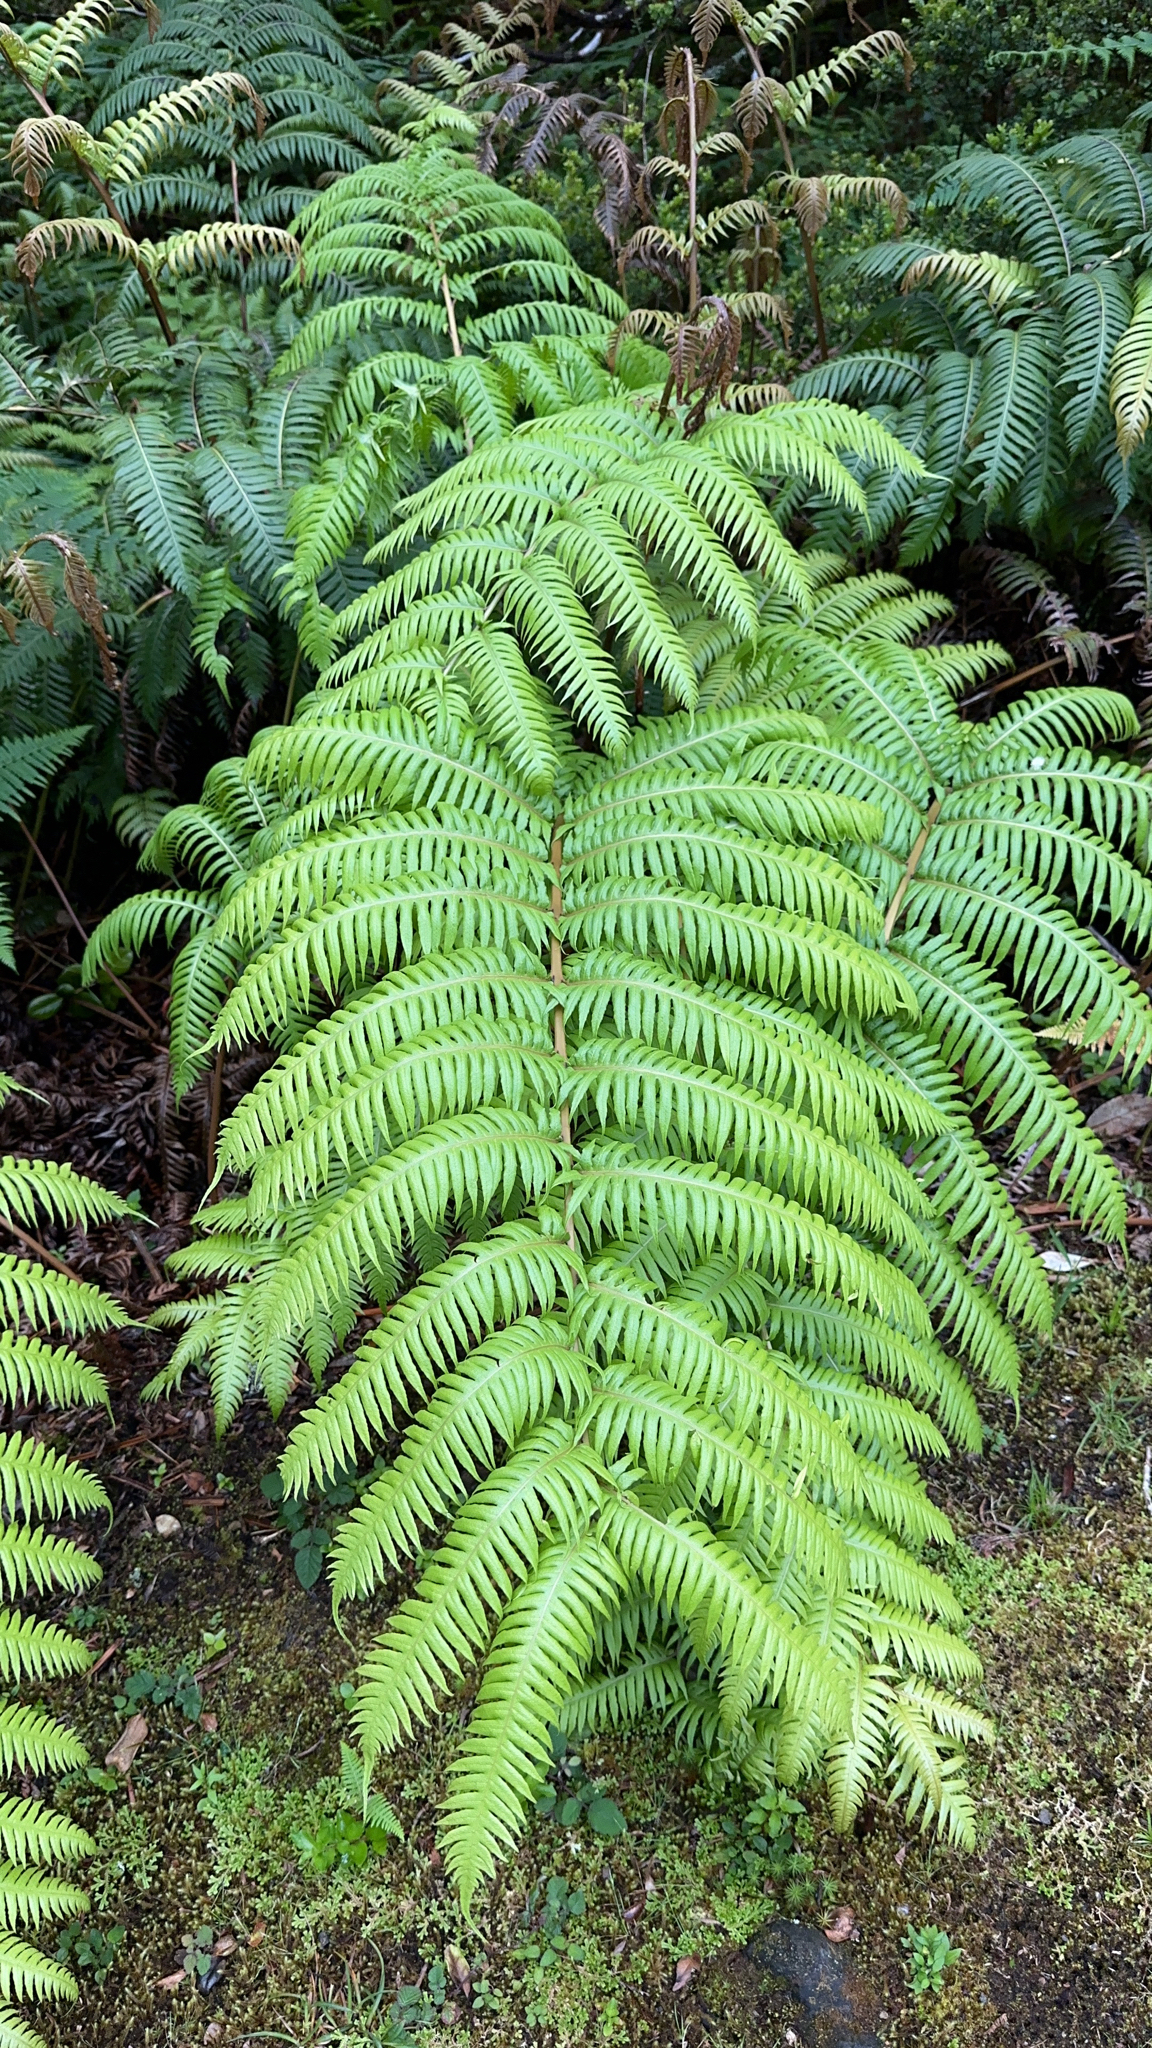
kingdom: Plantae
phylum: Tracheophyta
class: Polypodiopsida
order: Polypodiales
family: Blechnaceae
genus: Woodwardia
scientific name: Woodwardia radicans
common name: Rooting chainfern
